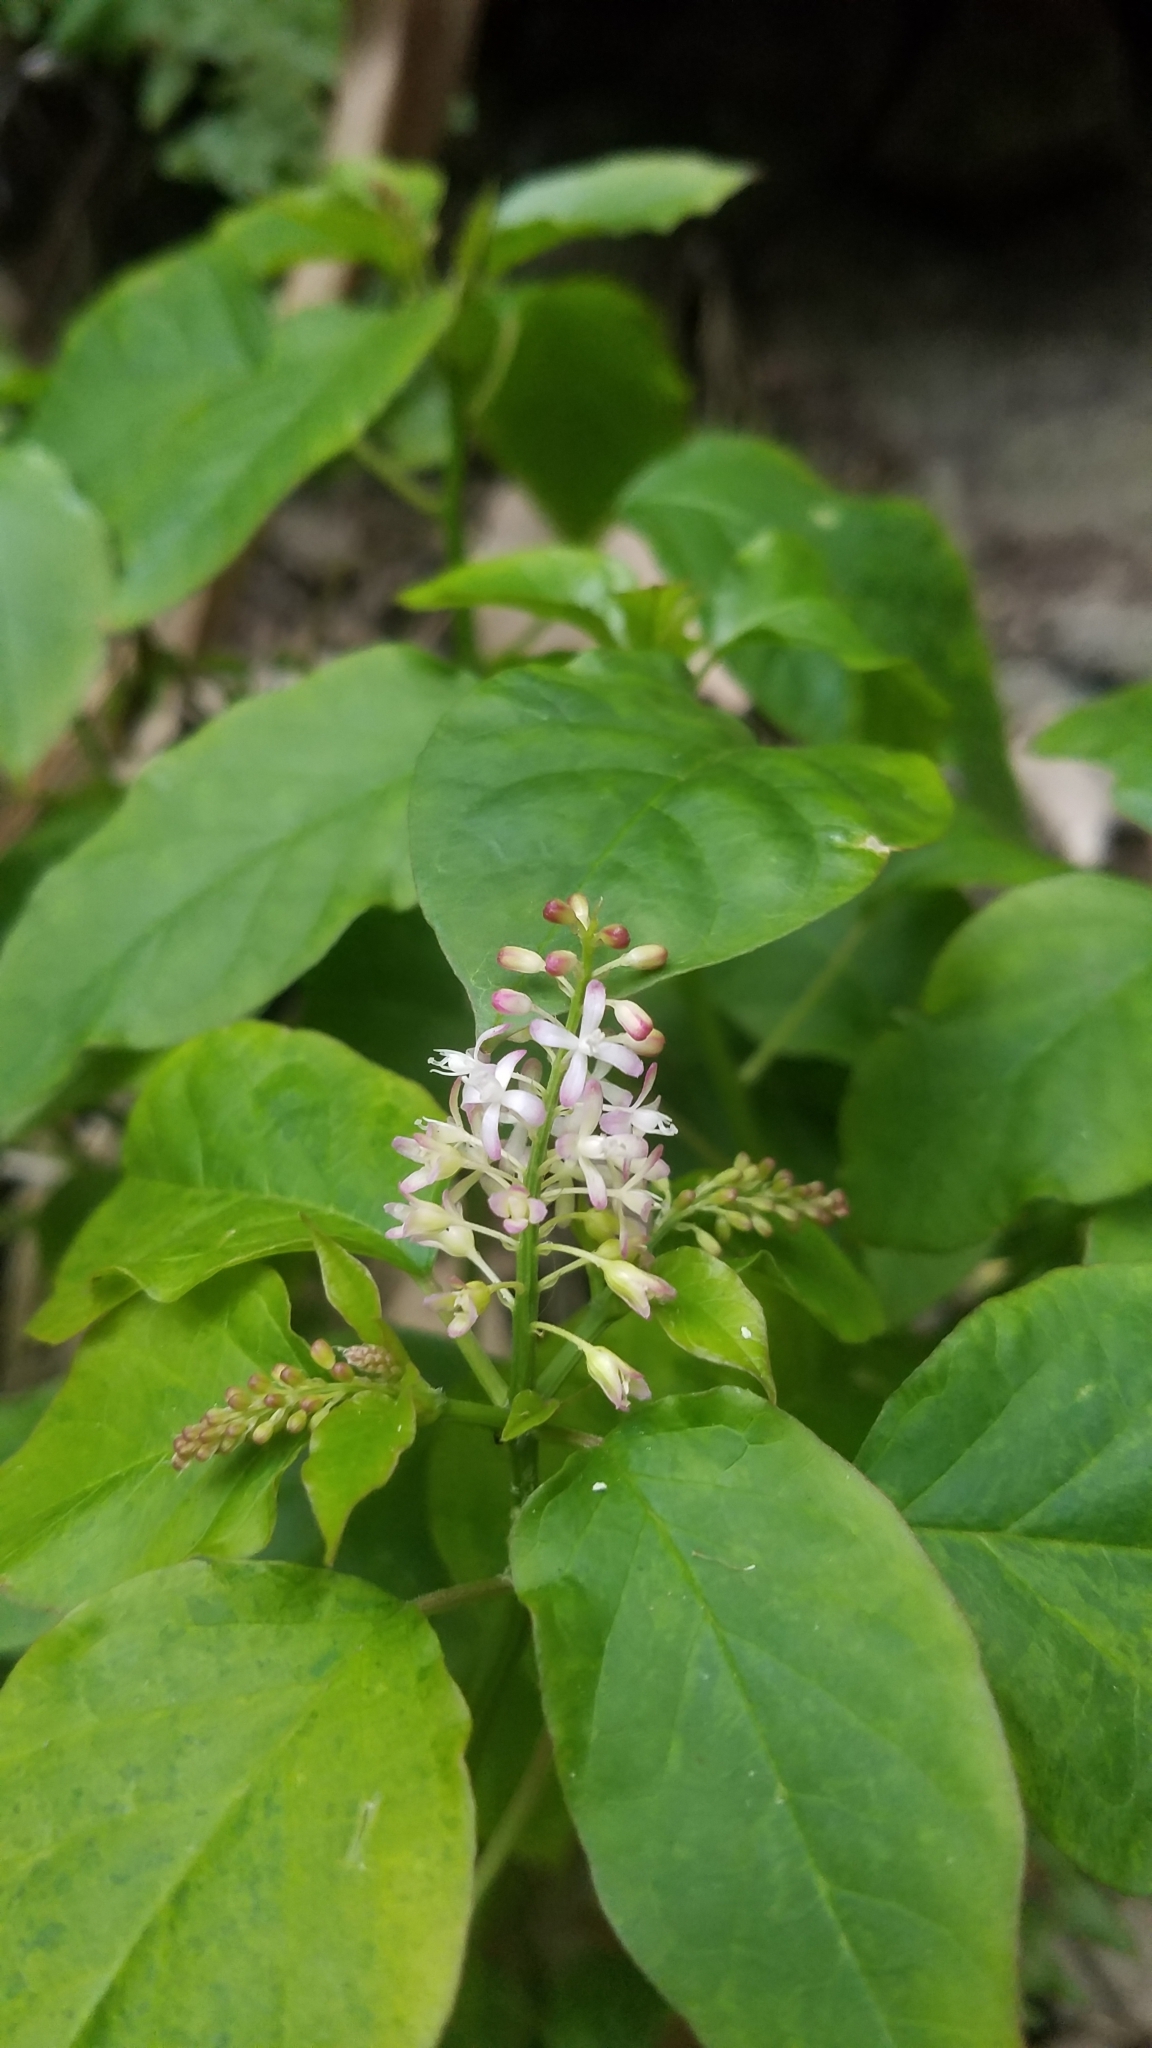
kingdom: Plantae
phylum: Tracheophyta
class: Magnoliopsida
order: Caryophyllales
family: Phytolaccaceae
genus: Rivina
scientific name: Rivina humilis
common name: Rougeplant
